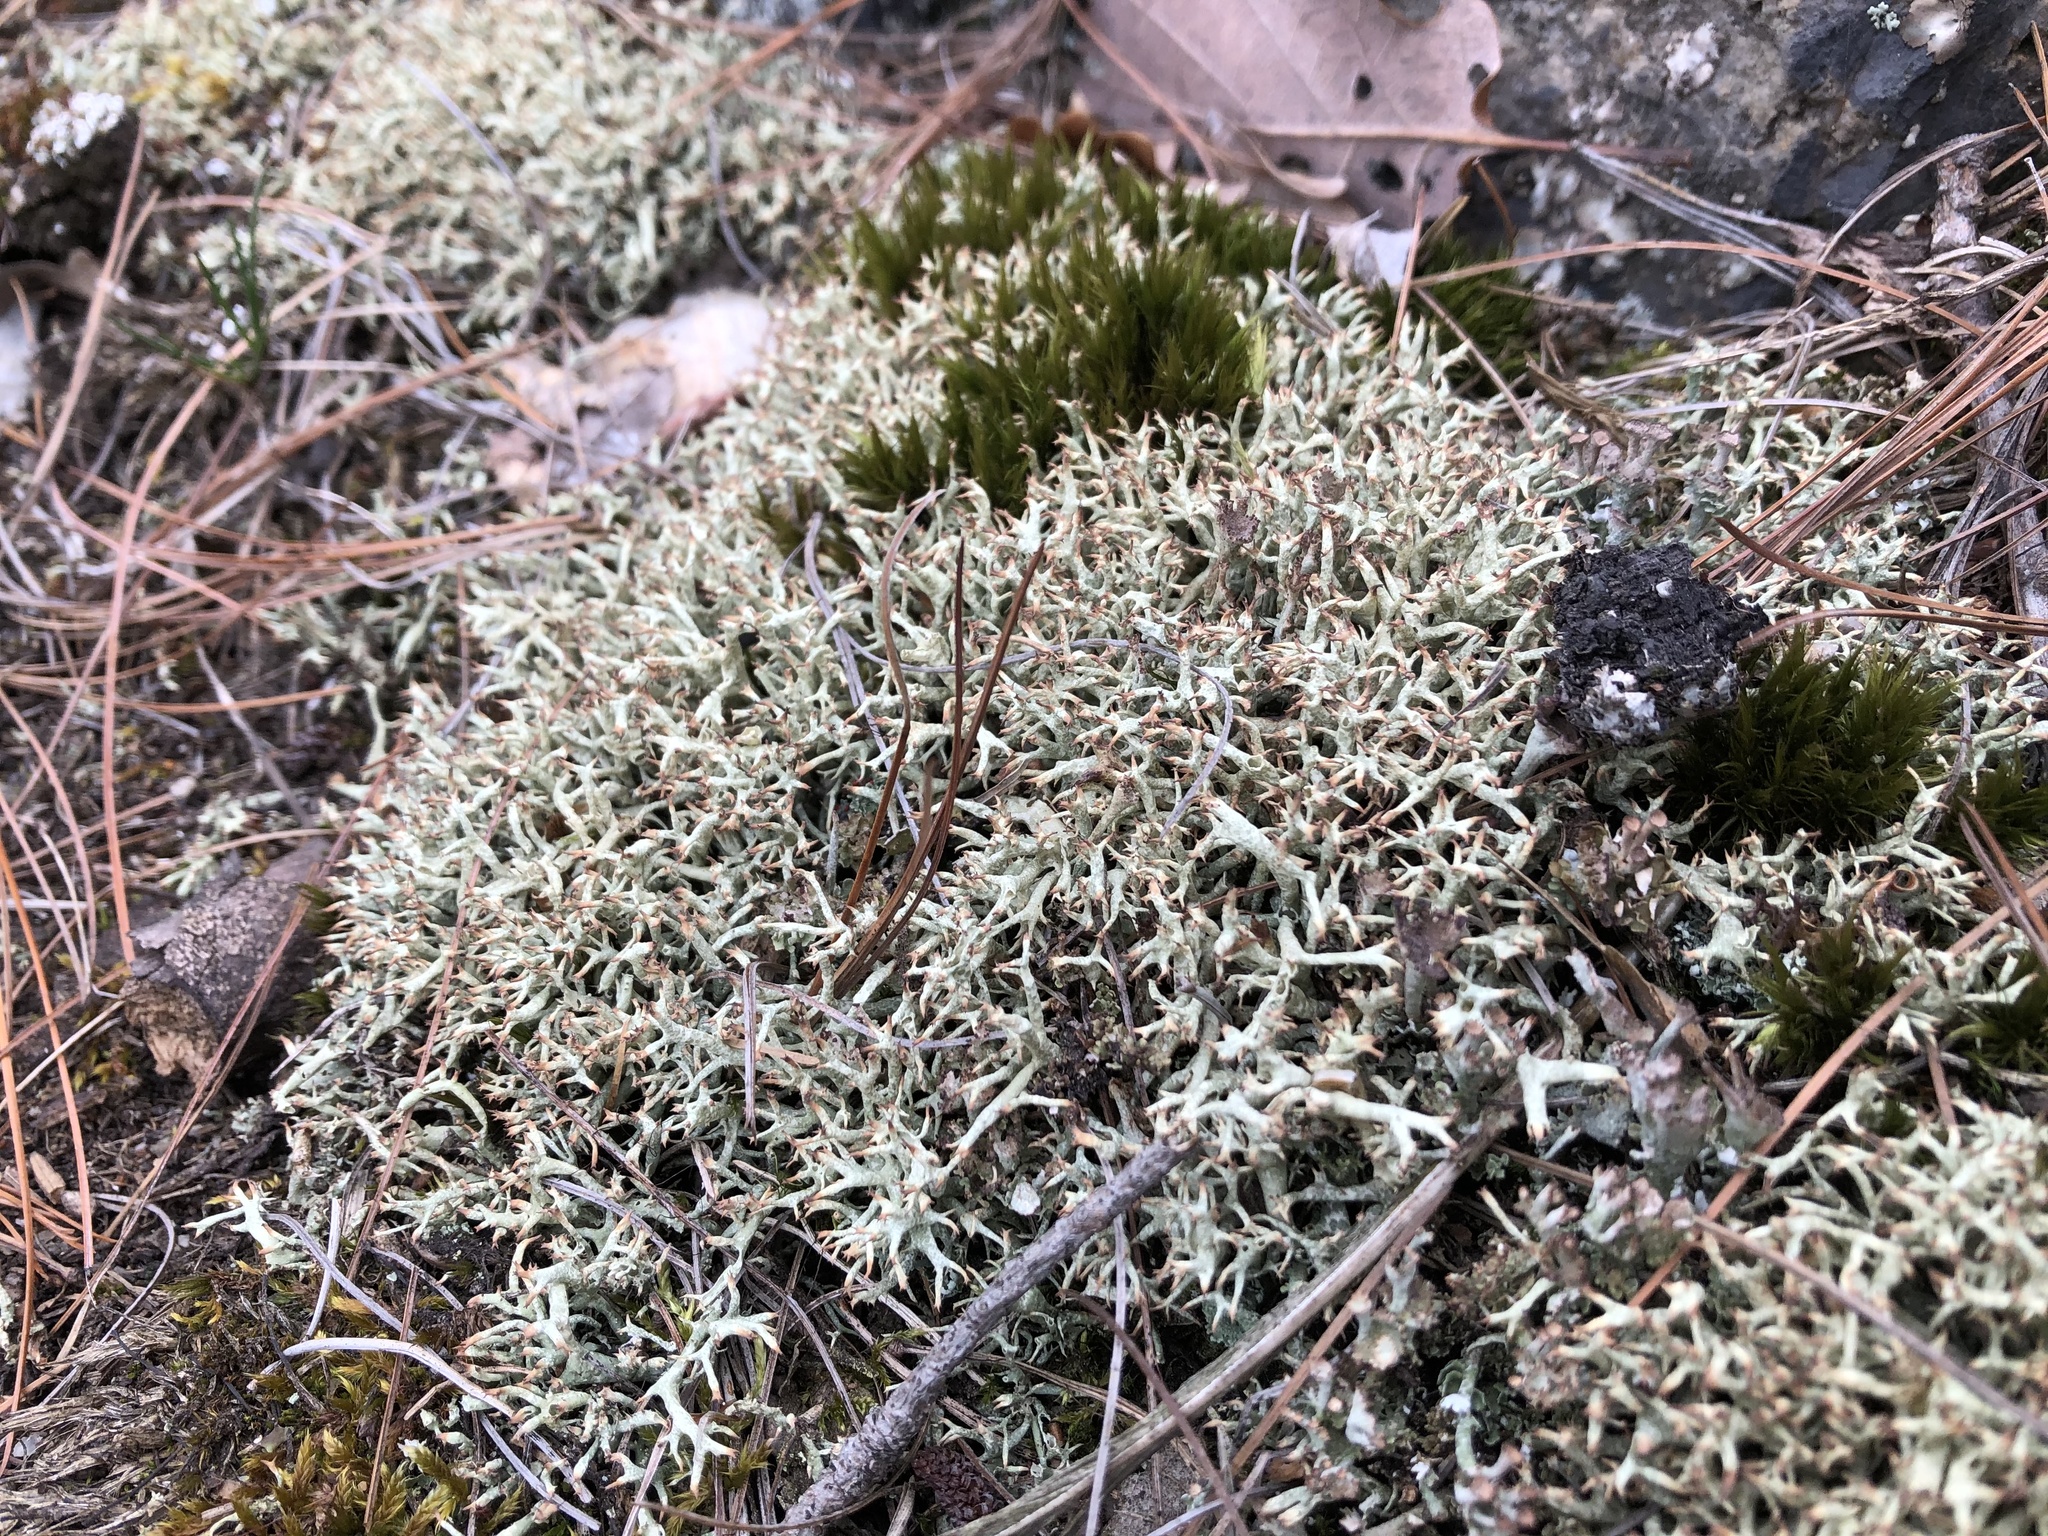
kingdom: Fungi
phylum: Ascomycota
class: Lecanoromycetes
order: Lecanorales
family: Cladoniaceae
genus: Cladonia
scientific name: Cladonia uncialis
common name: Thorn lichen
